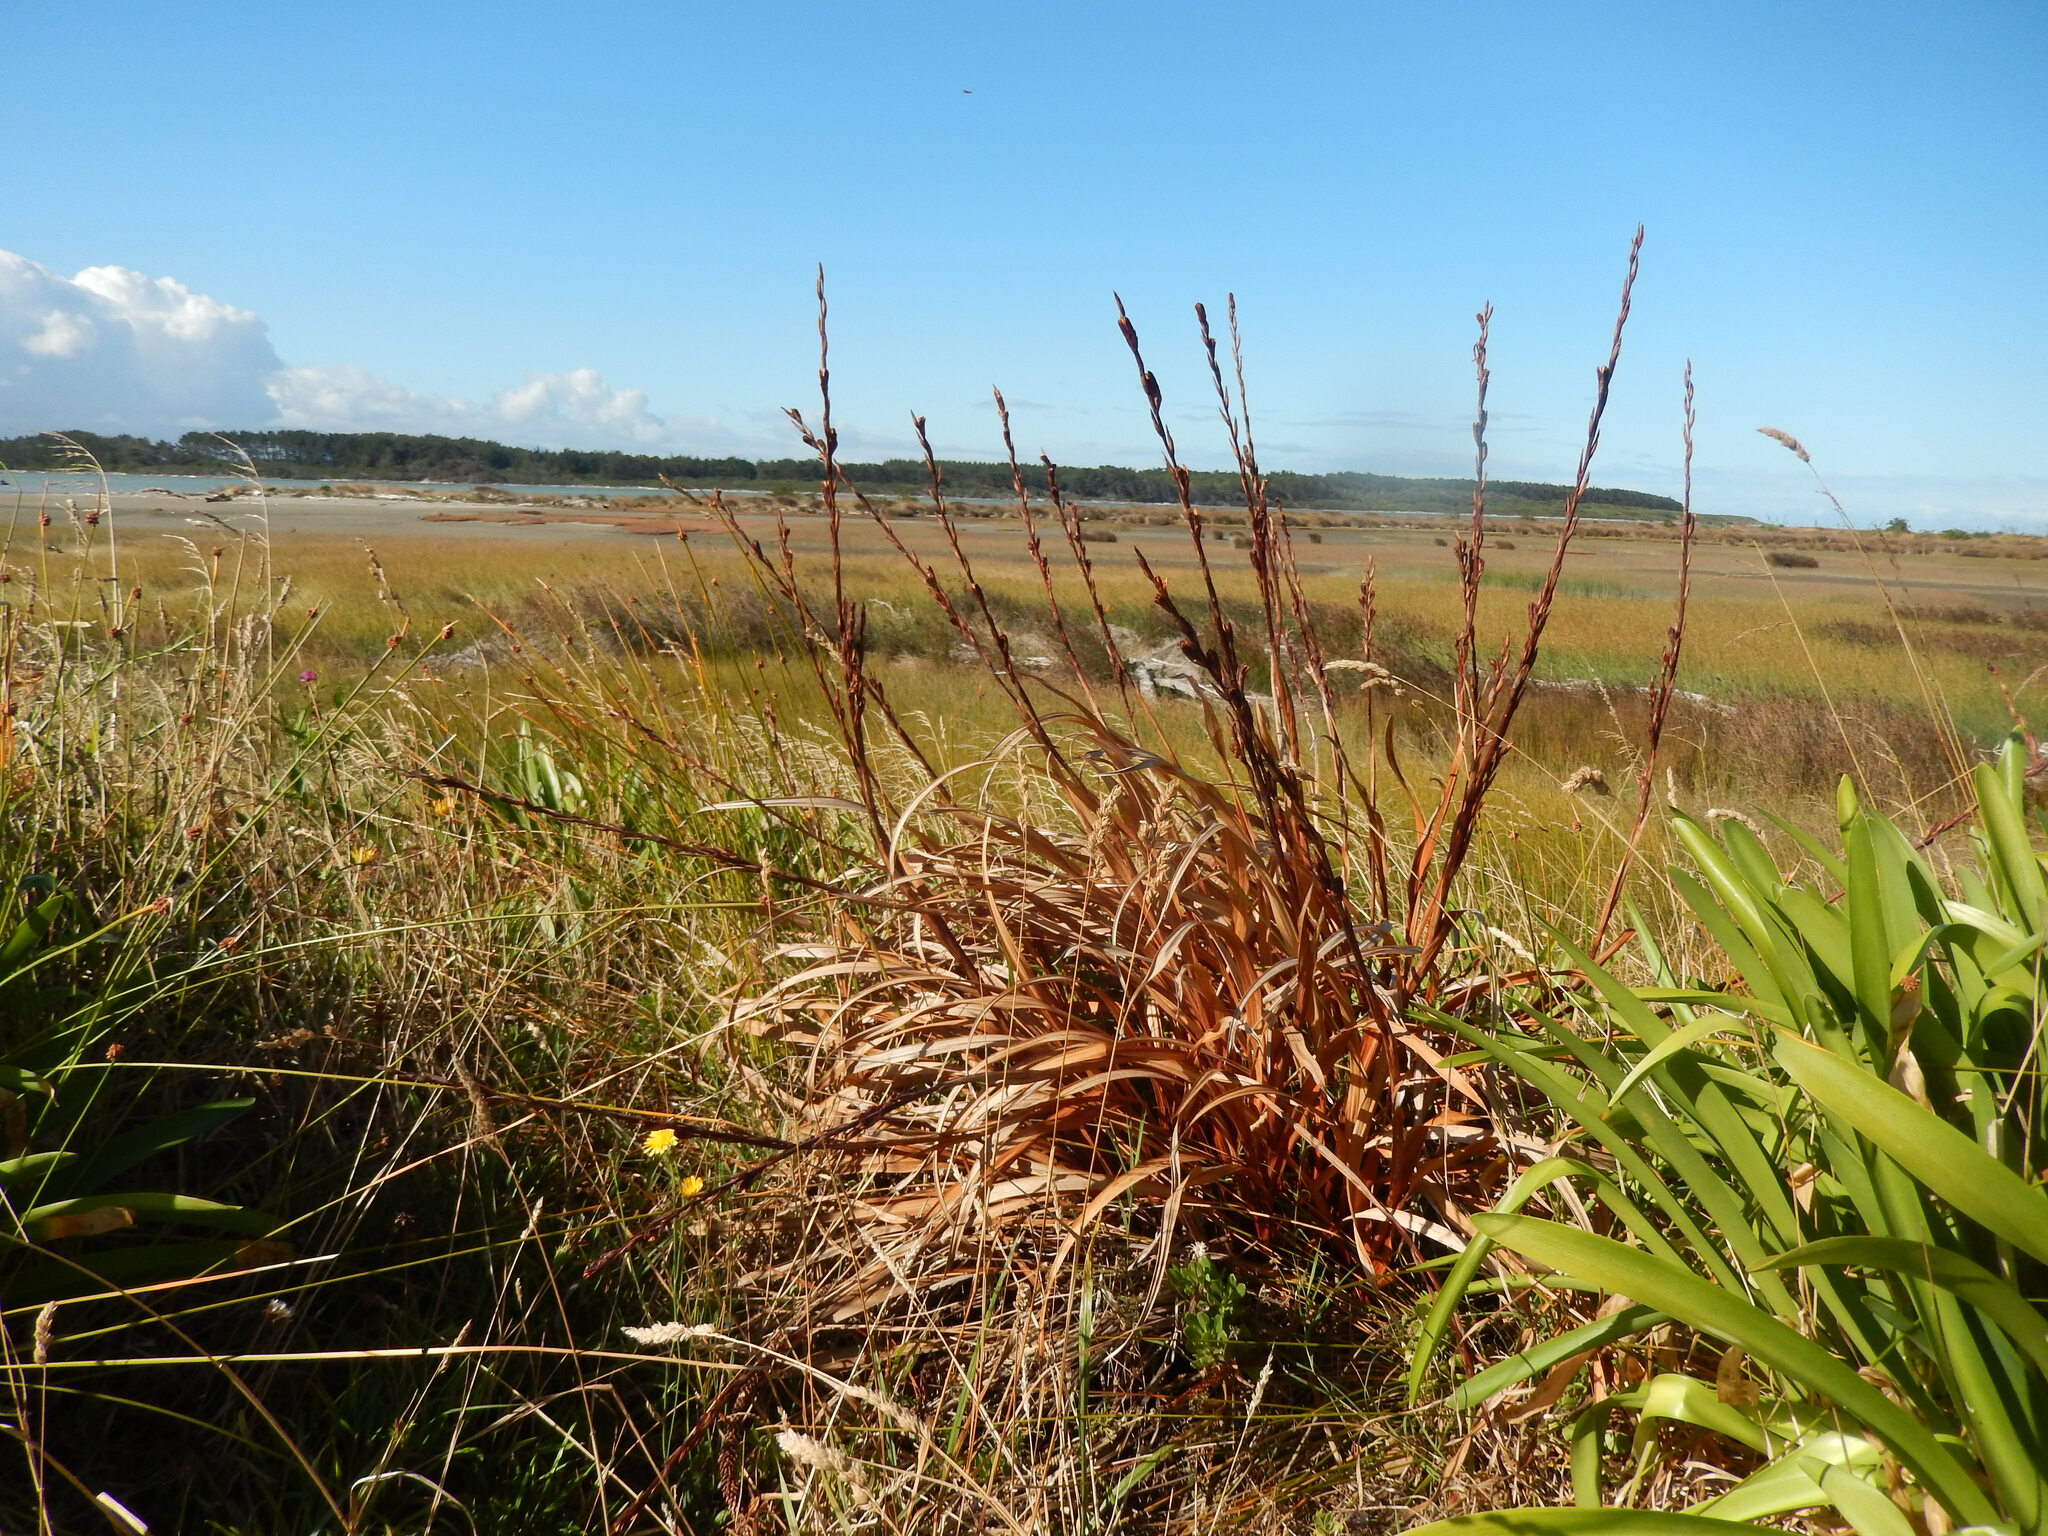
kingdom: Plantae
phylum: Tracheophyta
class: Liliopsida
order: Asparagales
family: Iridaceae
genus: Watsonia
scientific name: Watsonia meriana
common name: Bulbil bugle-lily
